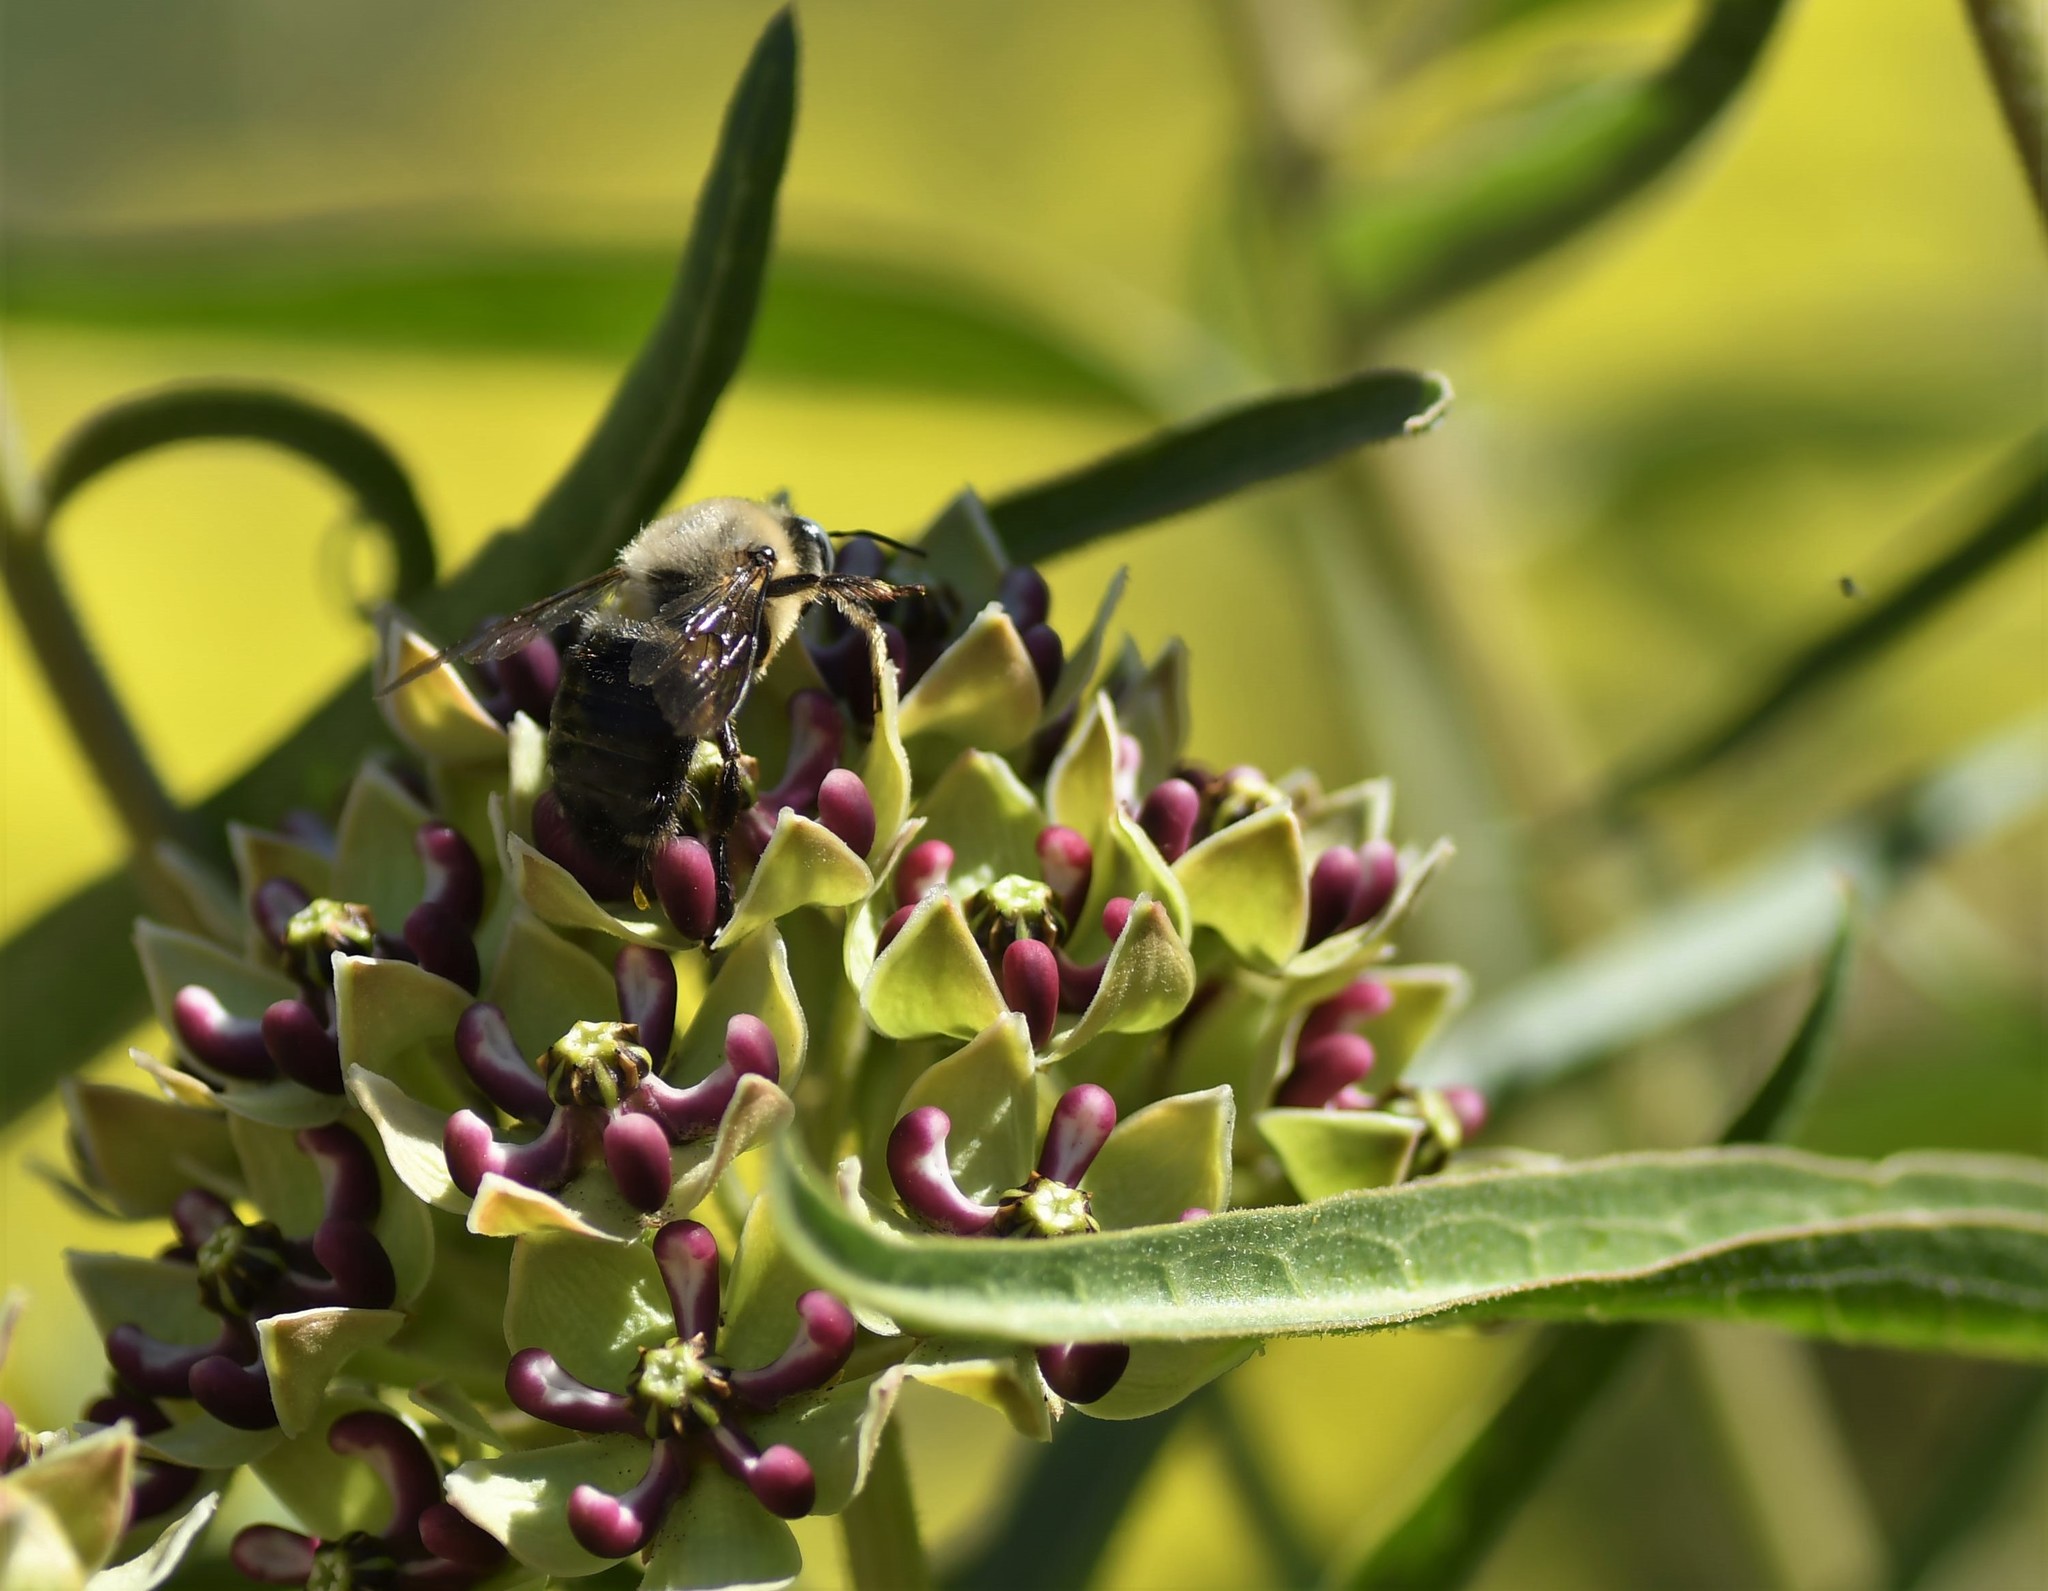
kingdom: Animalia
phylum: Arthropoda
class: Insecta
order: Hymenoptera
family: Apidae
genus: Xylocopa
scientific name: Xylocopa tabaniformis
